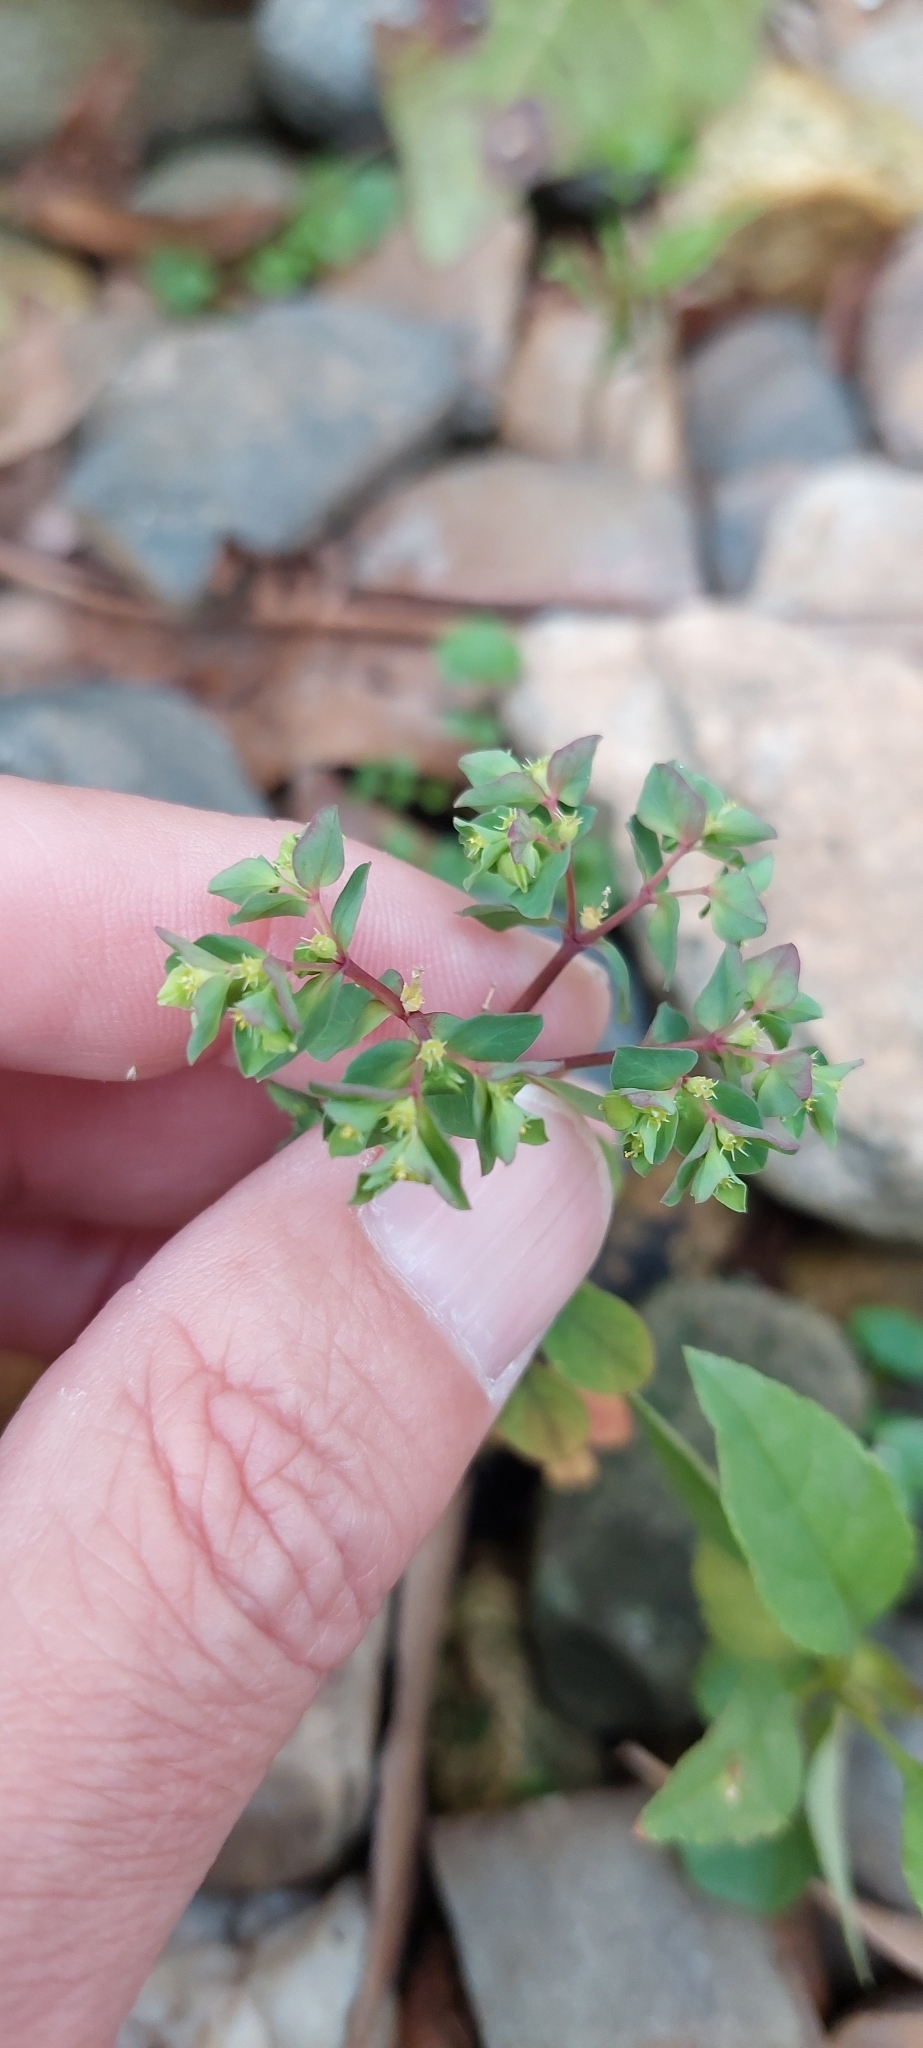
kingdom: Plantae
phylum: Tracheophyta
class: Magnoliopsida
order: Malpighiales
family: Euphorbiaceae
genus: Euphorbia
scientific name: Euphorbia peplus
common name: Petty spurge
